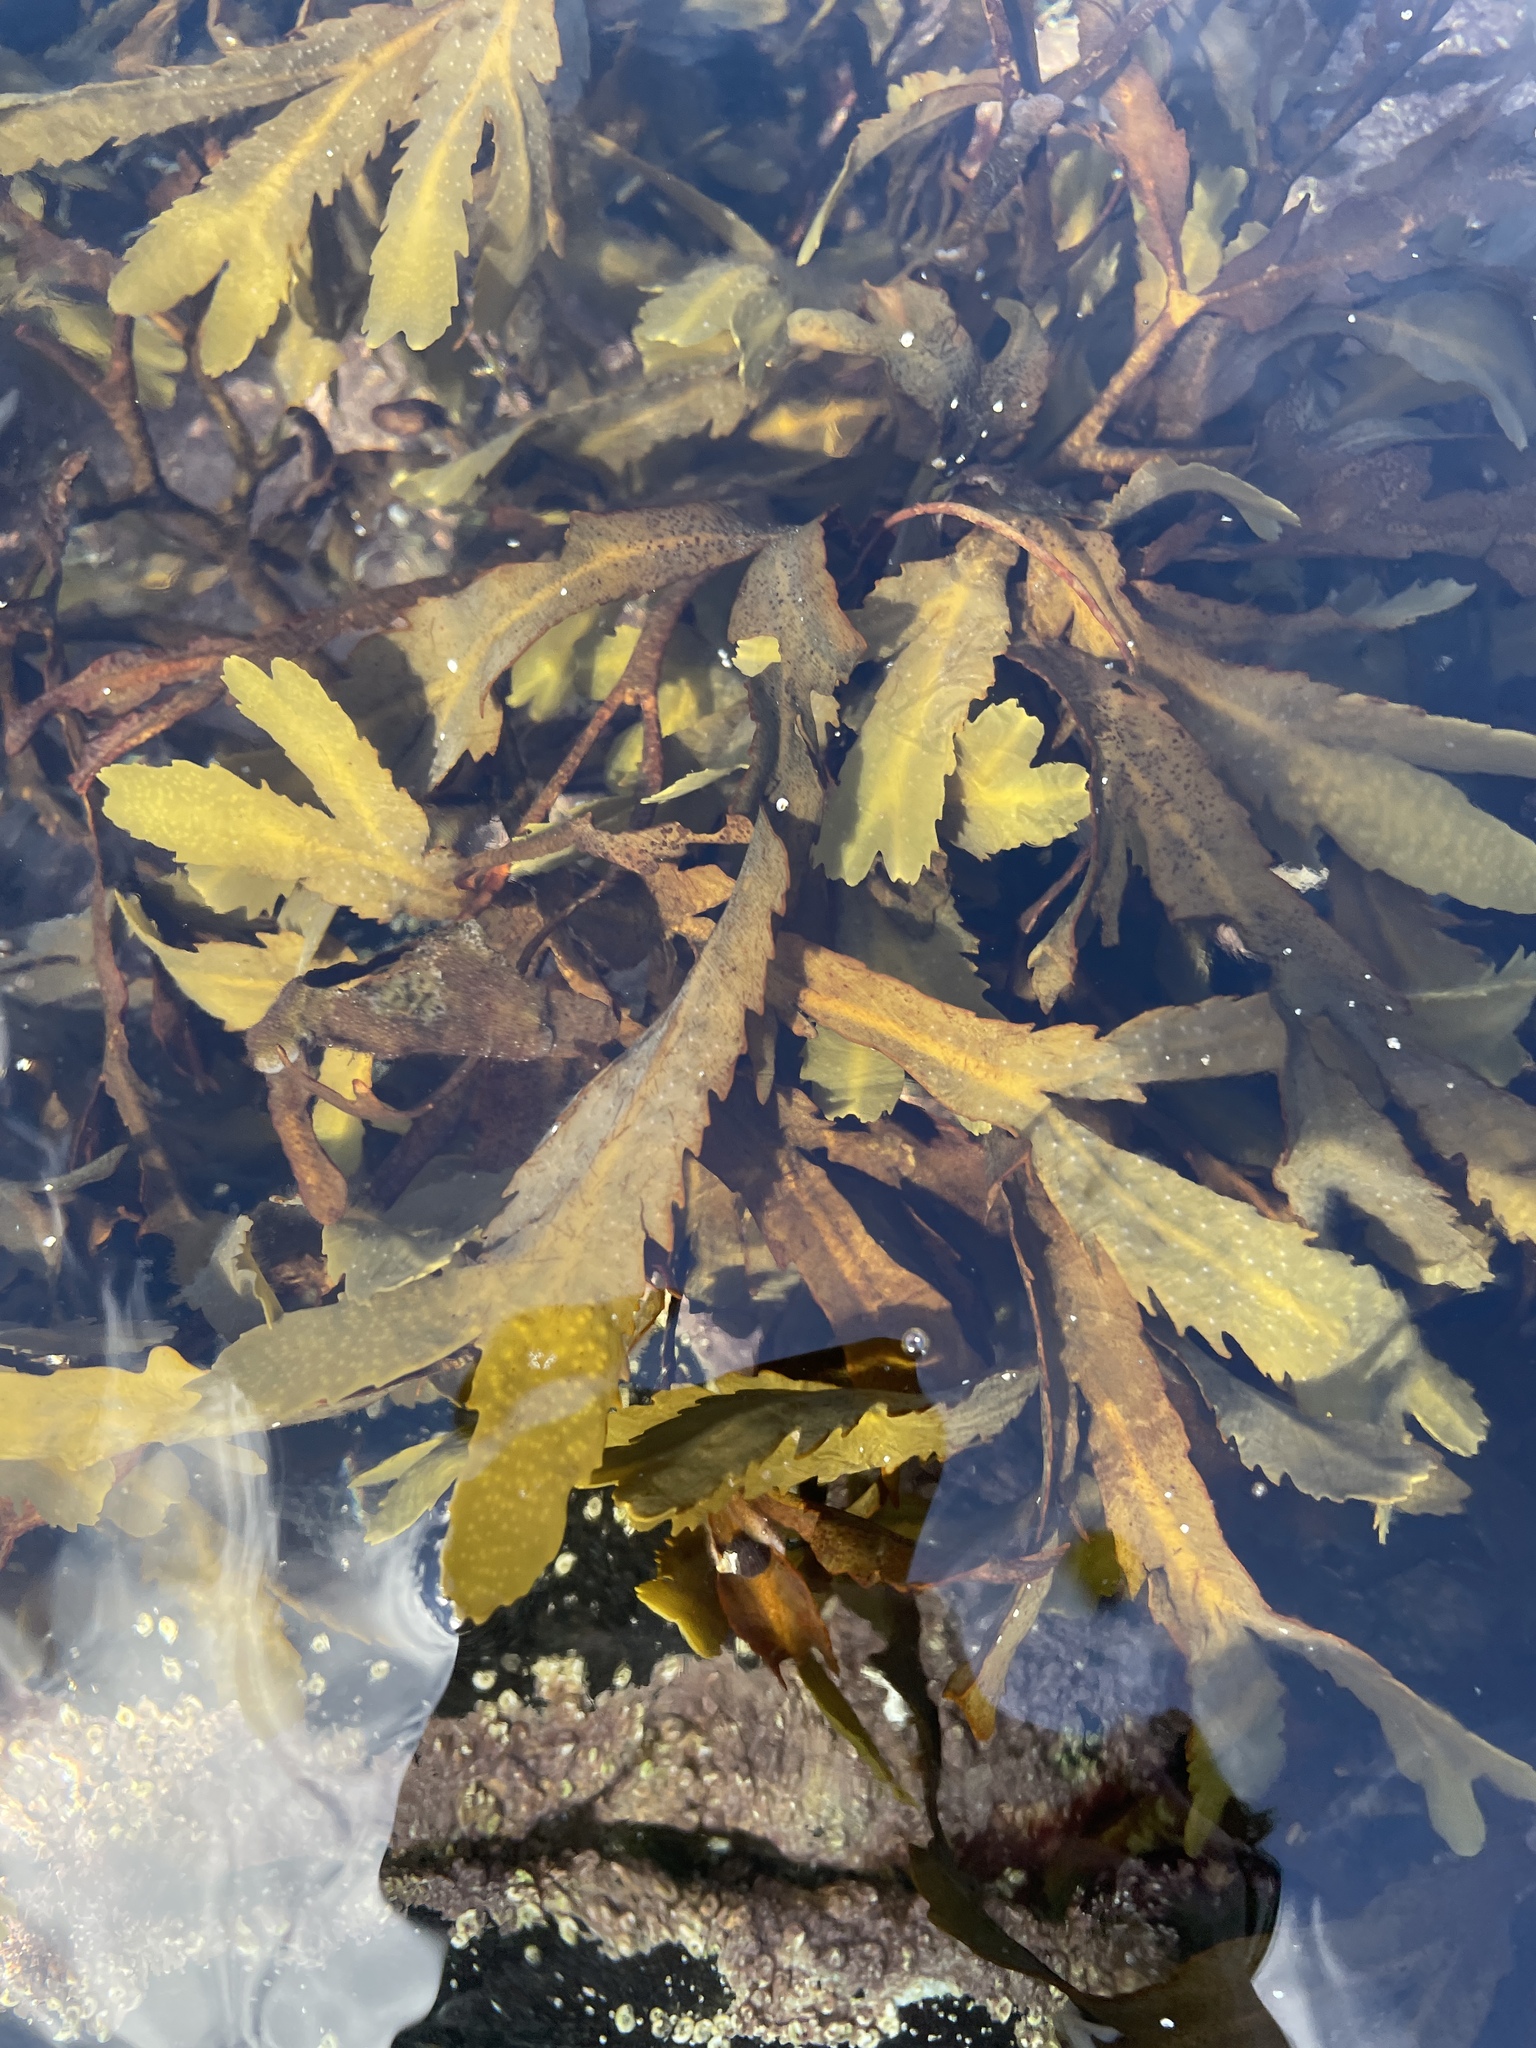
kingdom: Chromista
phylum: Ochrophyta
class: Phaeophyceae
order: Fucales
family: Fucaceae
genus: Fucus
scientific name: Fucus serratus
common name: Toothed wrack
